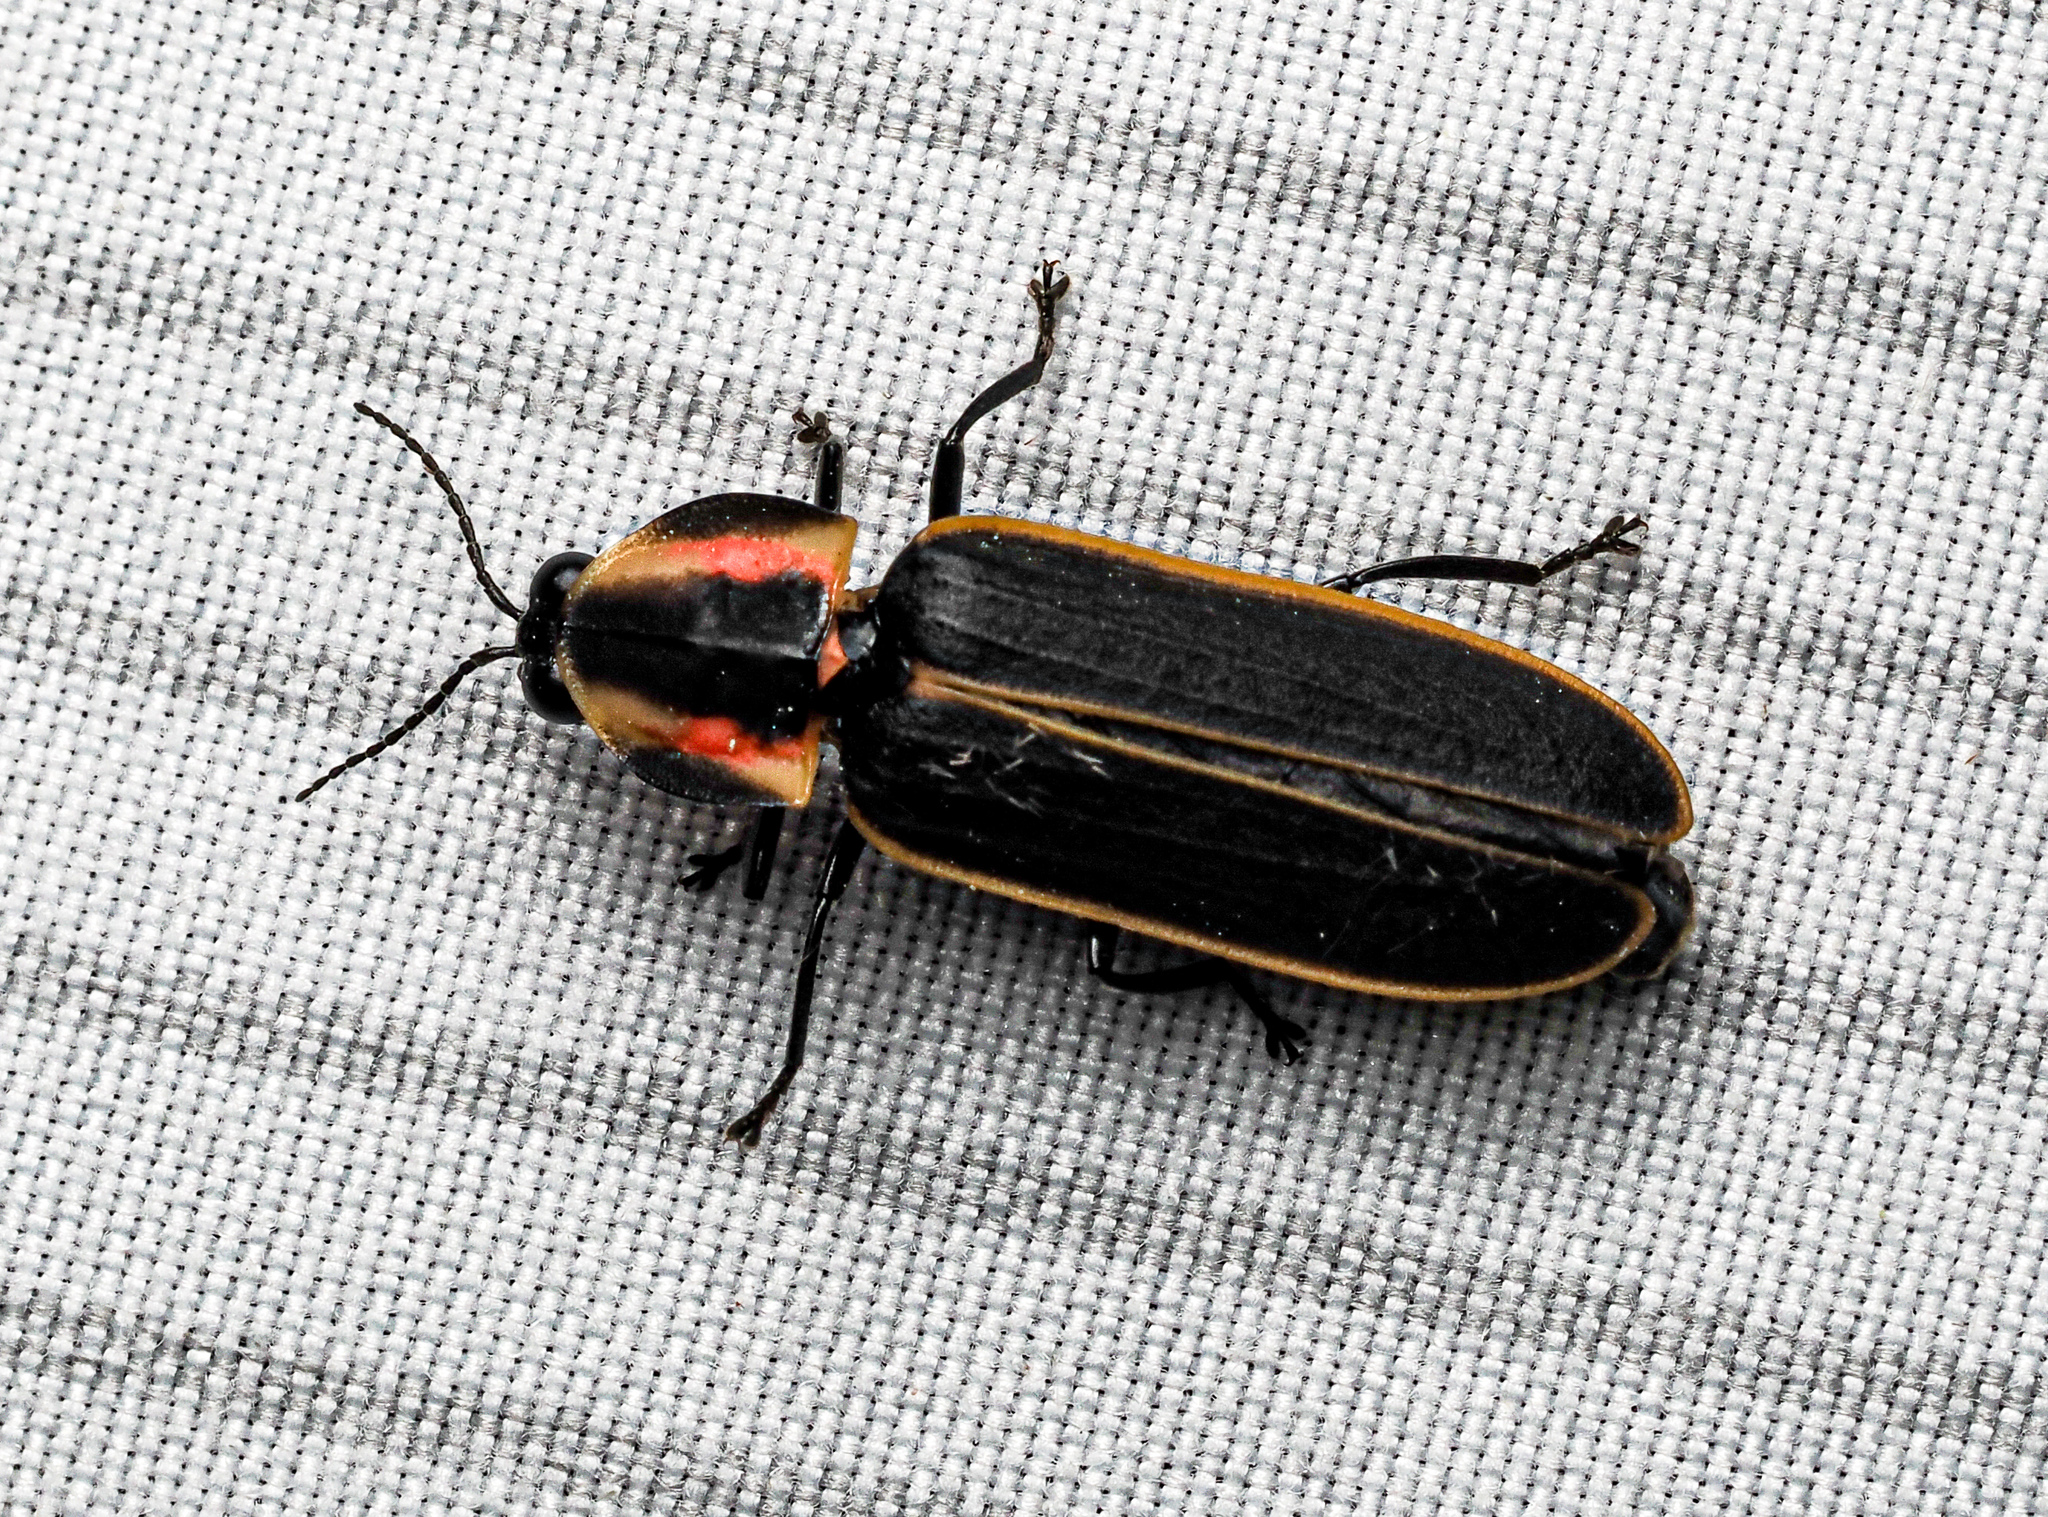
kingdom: Animalia
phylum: Arthropoda
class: Insecta
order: Coleoptera
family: Lampyridae
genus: Pyractomena
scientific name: Pyractomena borealis
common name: Northern firefly
